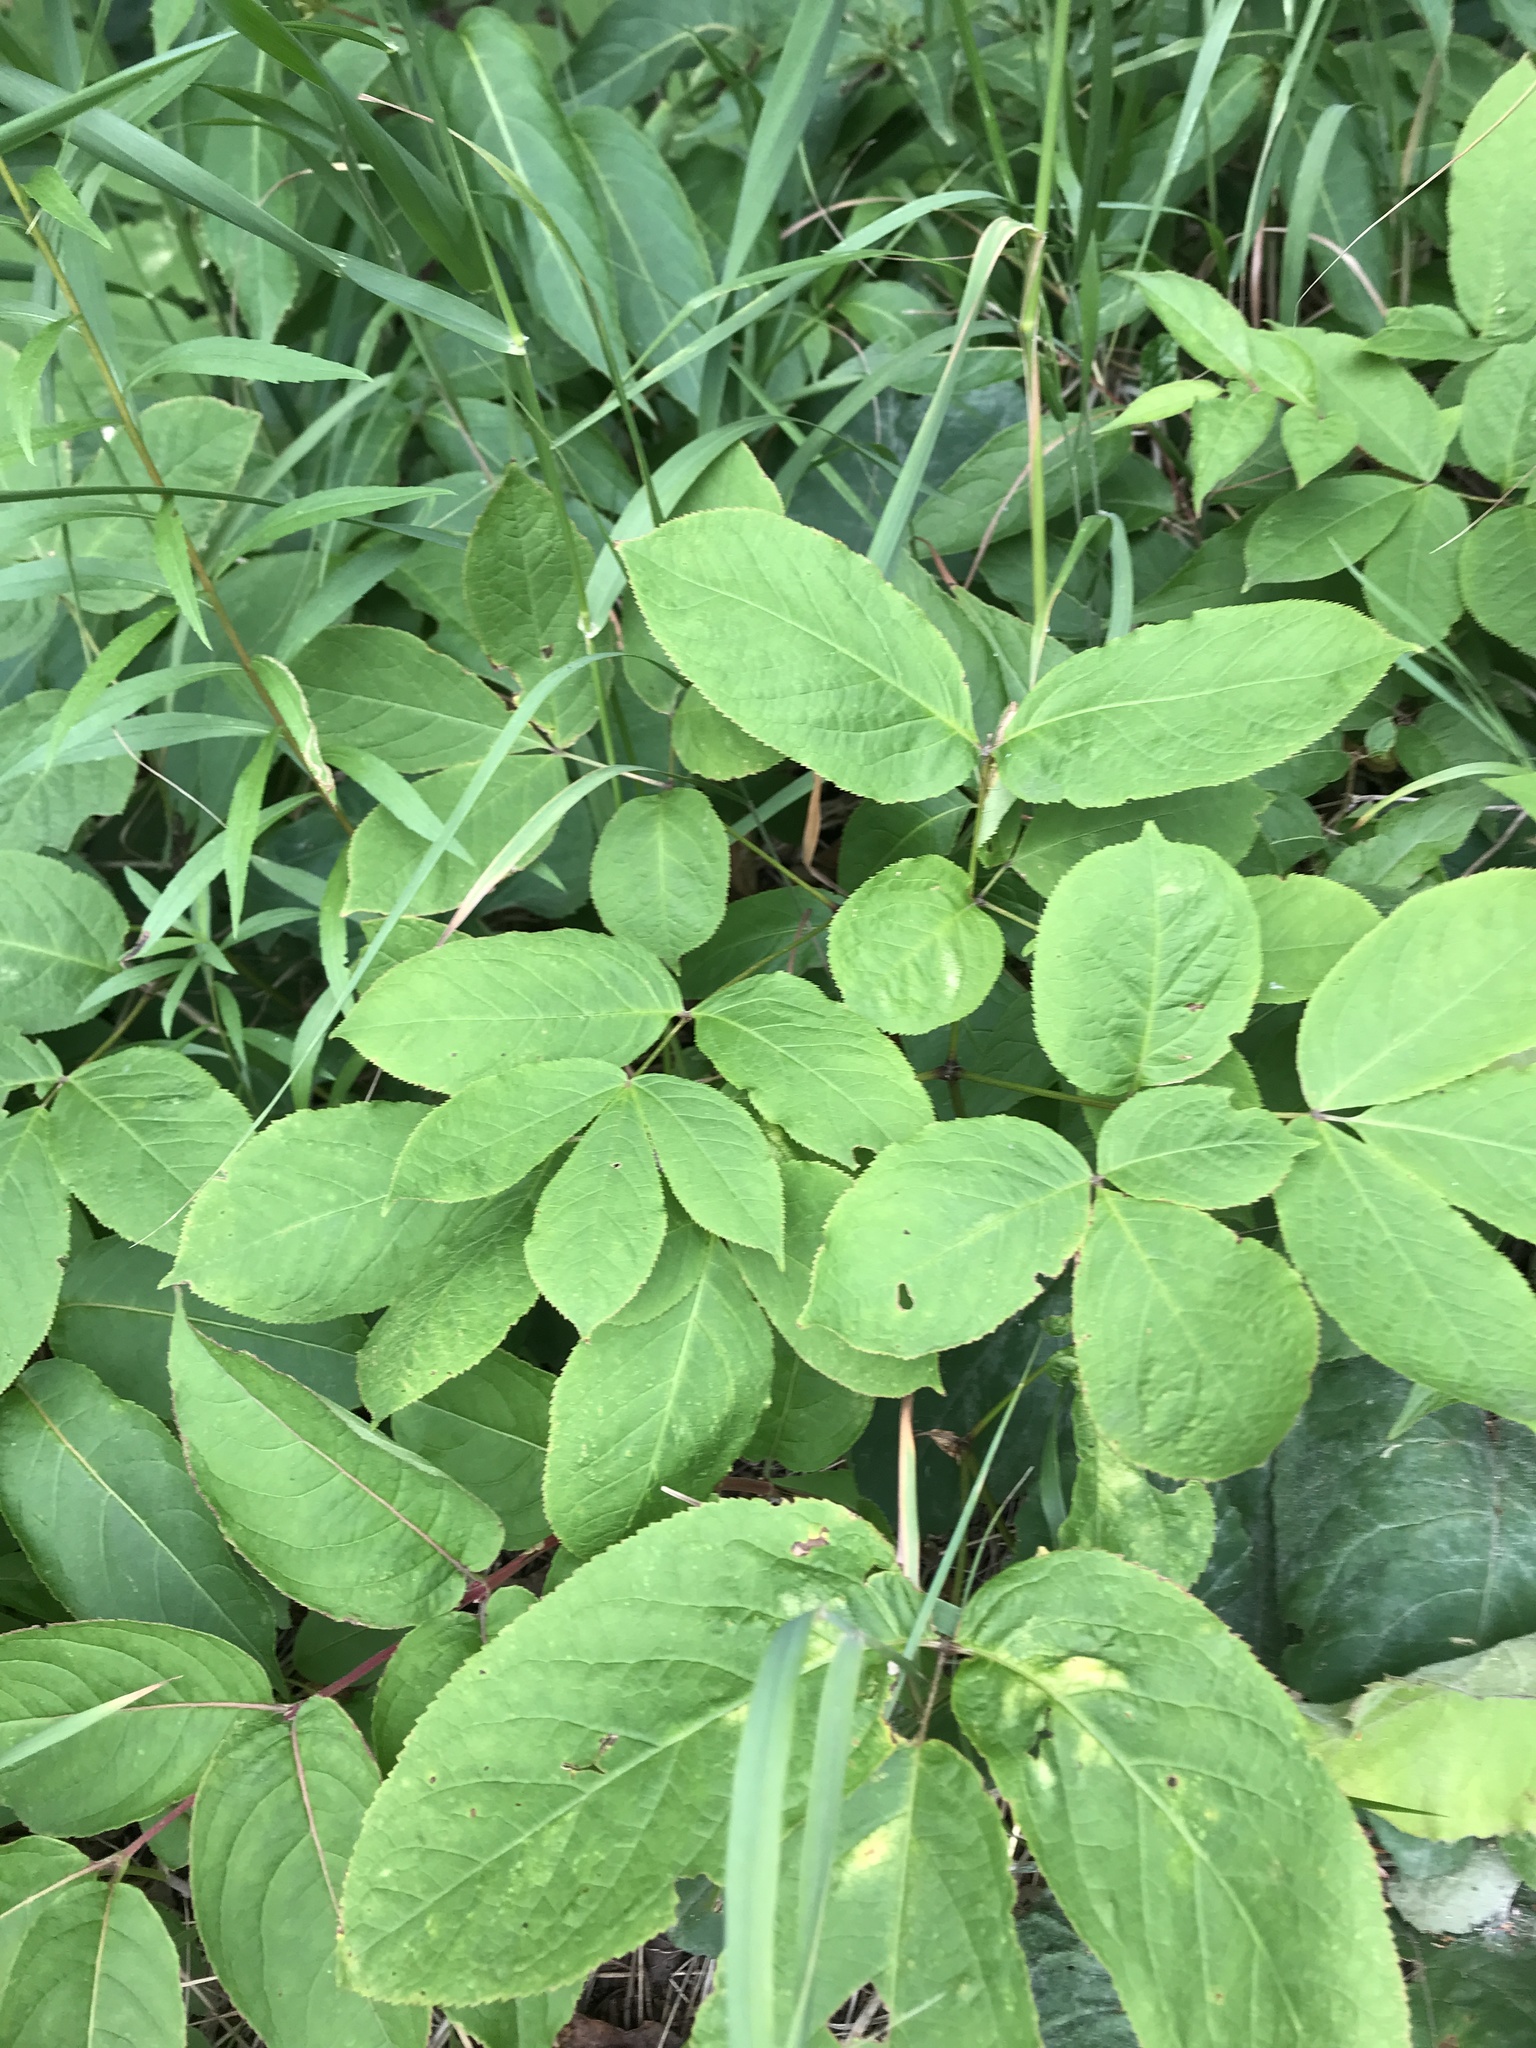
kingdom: Plantae
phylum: Tracheophyta
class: Magnoliopsida
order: Apiales
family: Araliaceae
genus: Aralia
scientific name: Aralia nudicaulis
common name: Wild sarsaparilla
